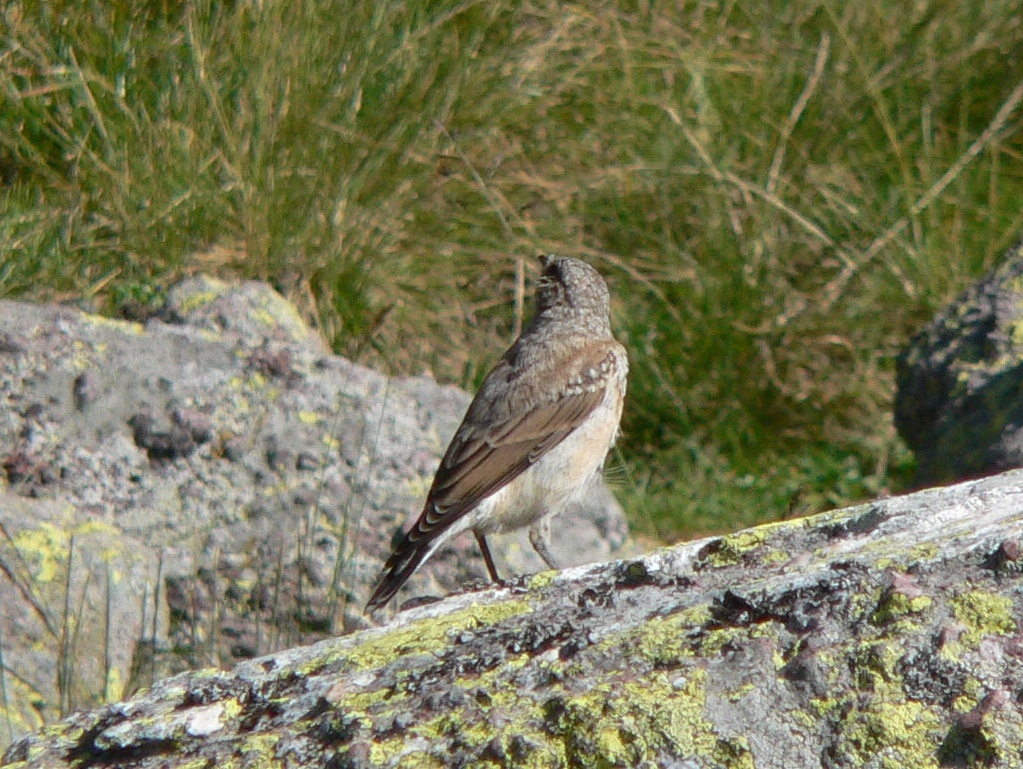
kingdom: Animalia
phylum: Chordata
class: Aves
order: Passeriformes
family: Muscicapidae
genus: Oenanthe
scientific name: Oenanthe oenanthe
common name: Northern wheatear
